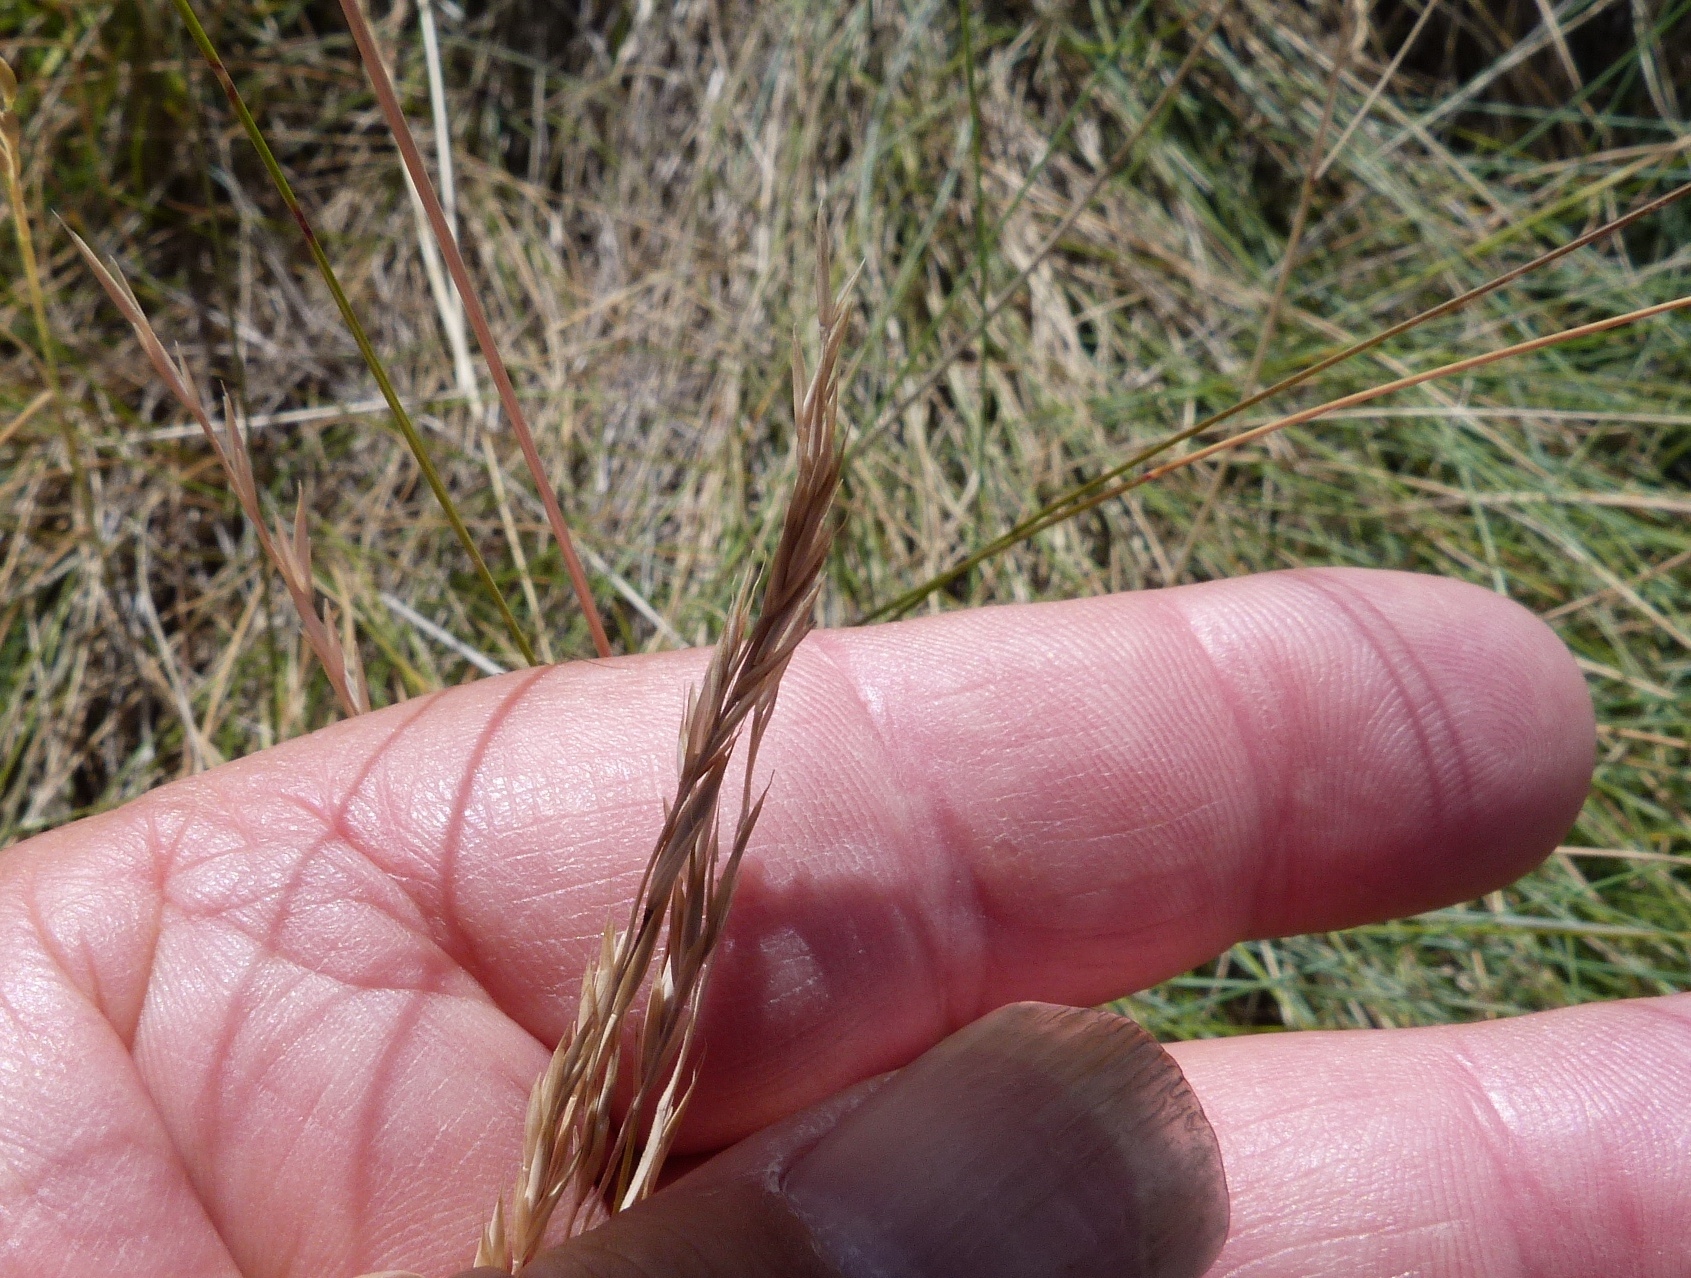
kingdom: Plantae
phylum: Tracheophyta
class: Liliopsida
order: Poales
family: Poaceae
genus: Festuca
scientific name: Festuca actae
